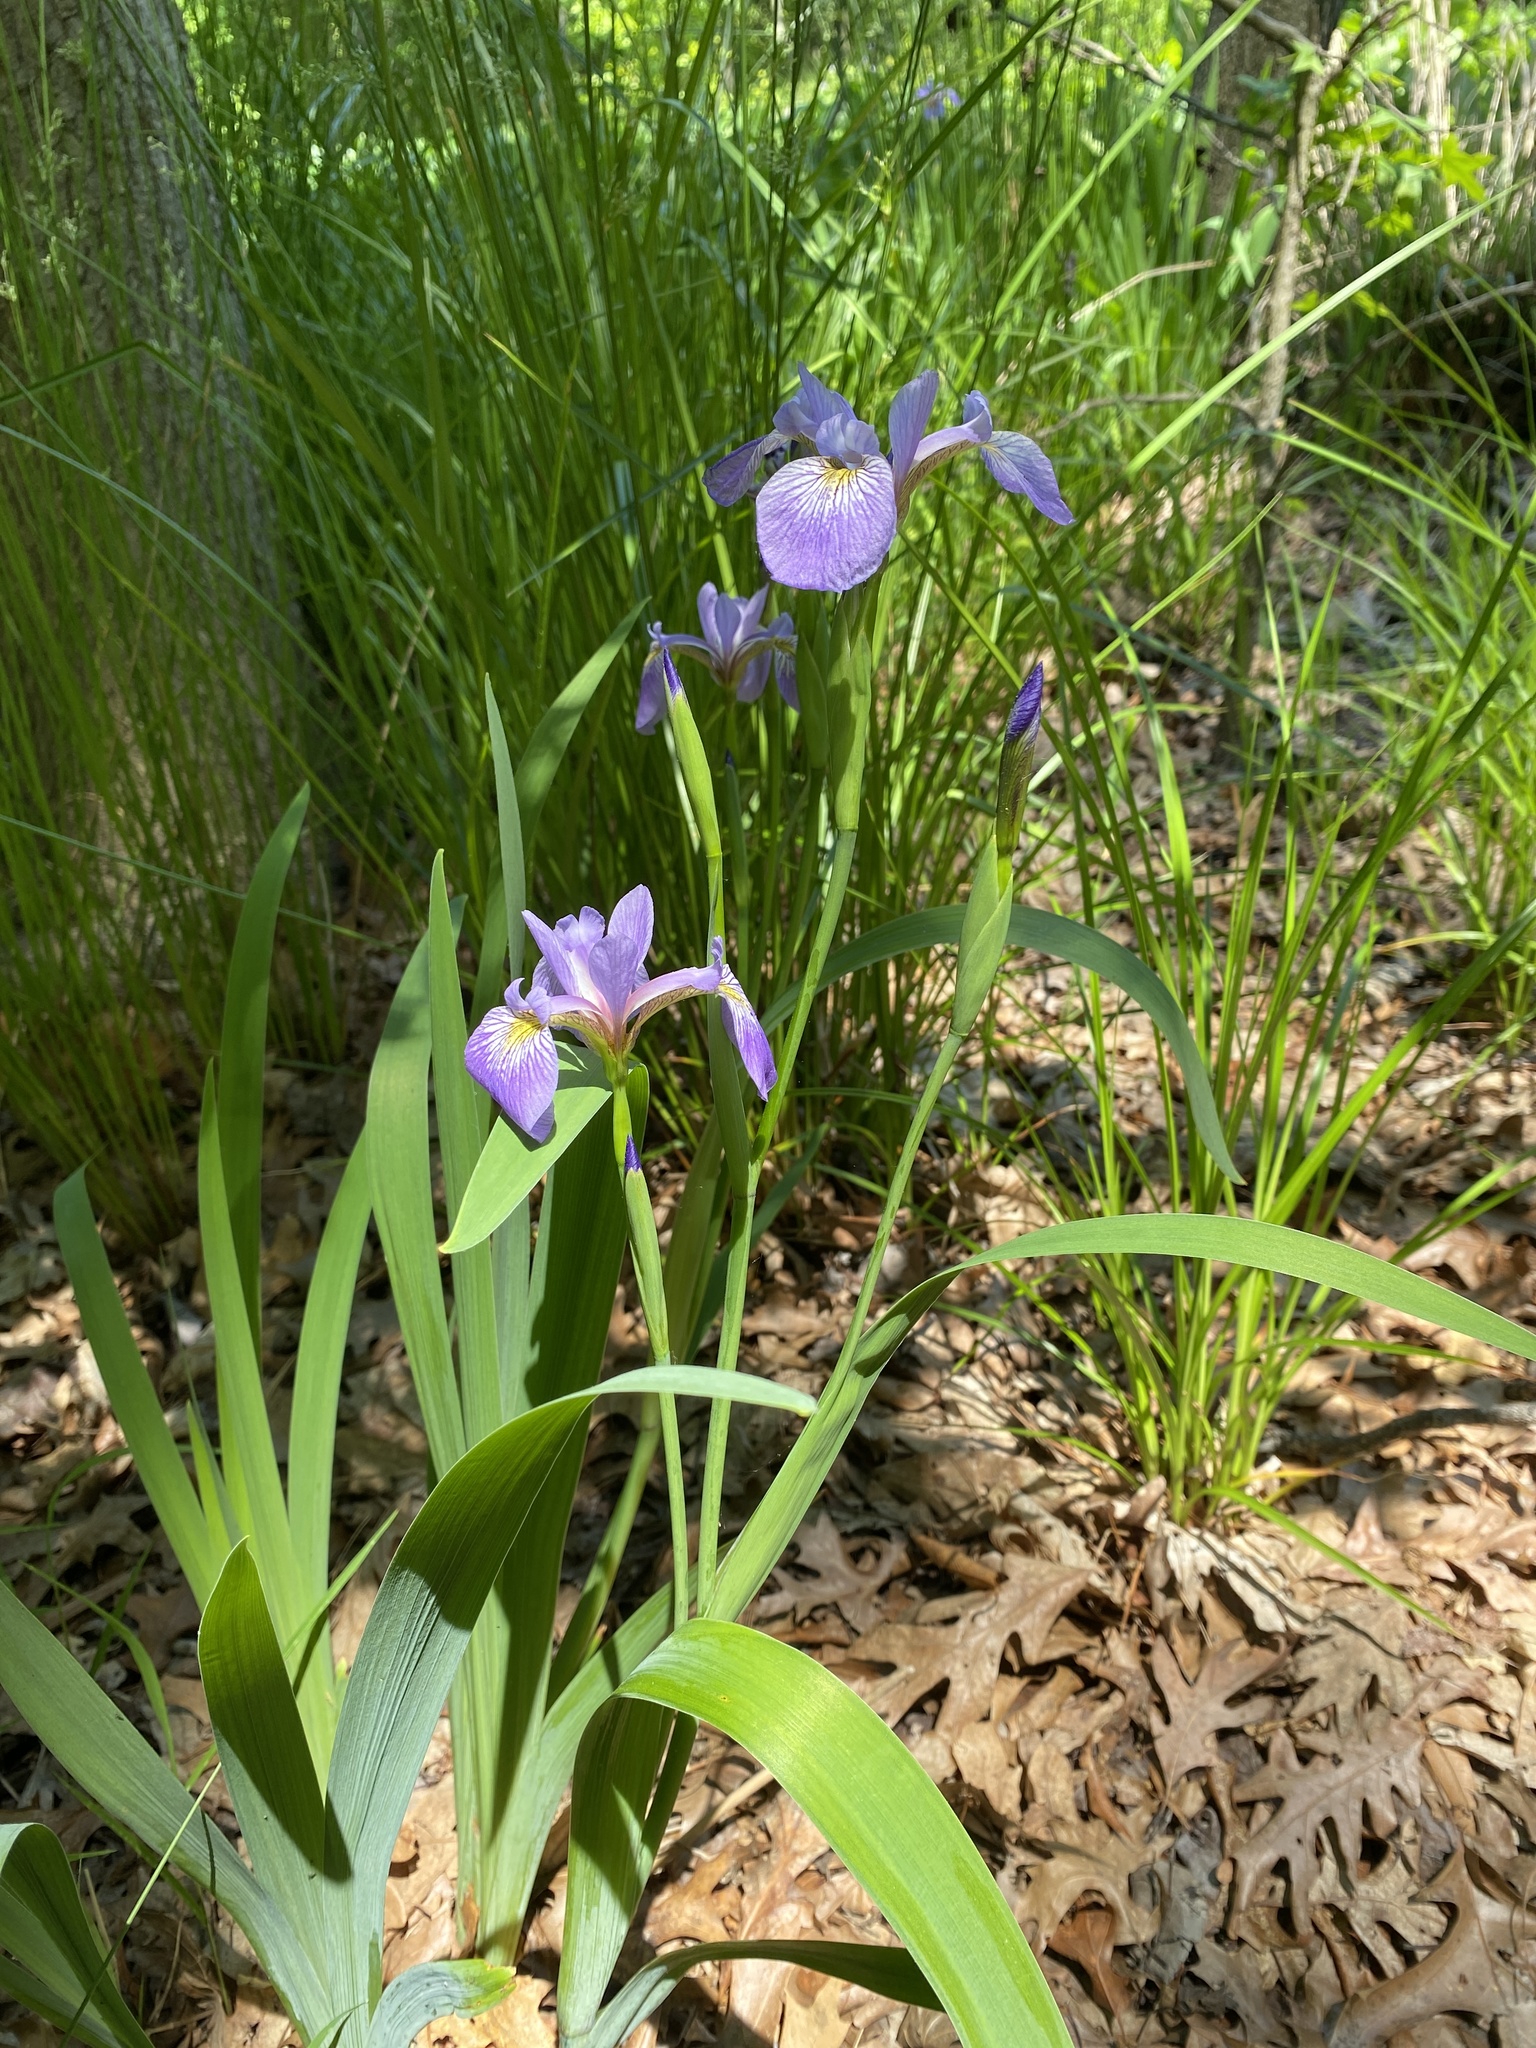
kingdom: Plantae
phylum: Tracheophyta
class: Liliopsida
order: Asparagales
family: Iridaceae
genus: Iris
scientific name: Iris versicolor
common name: Purple iris
